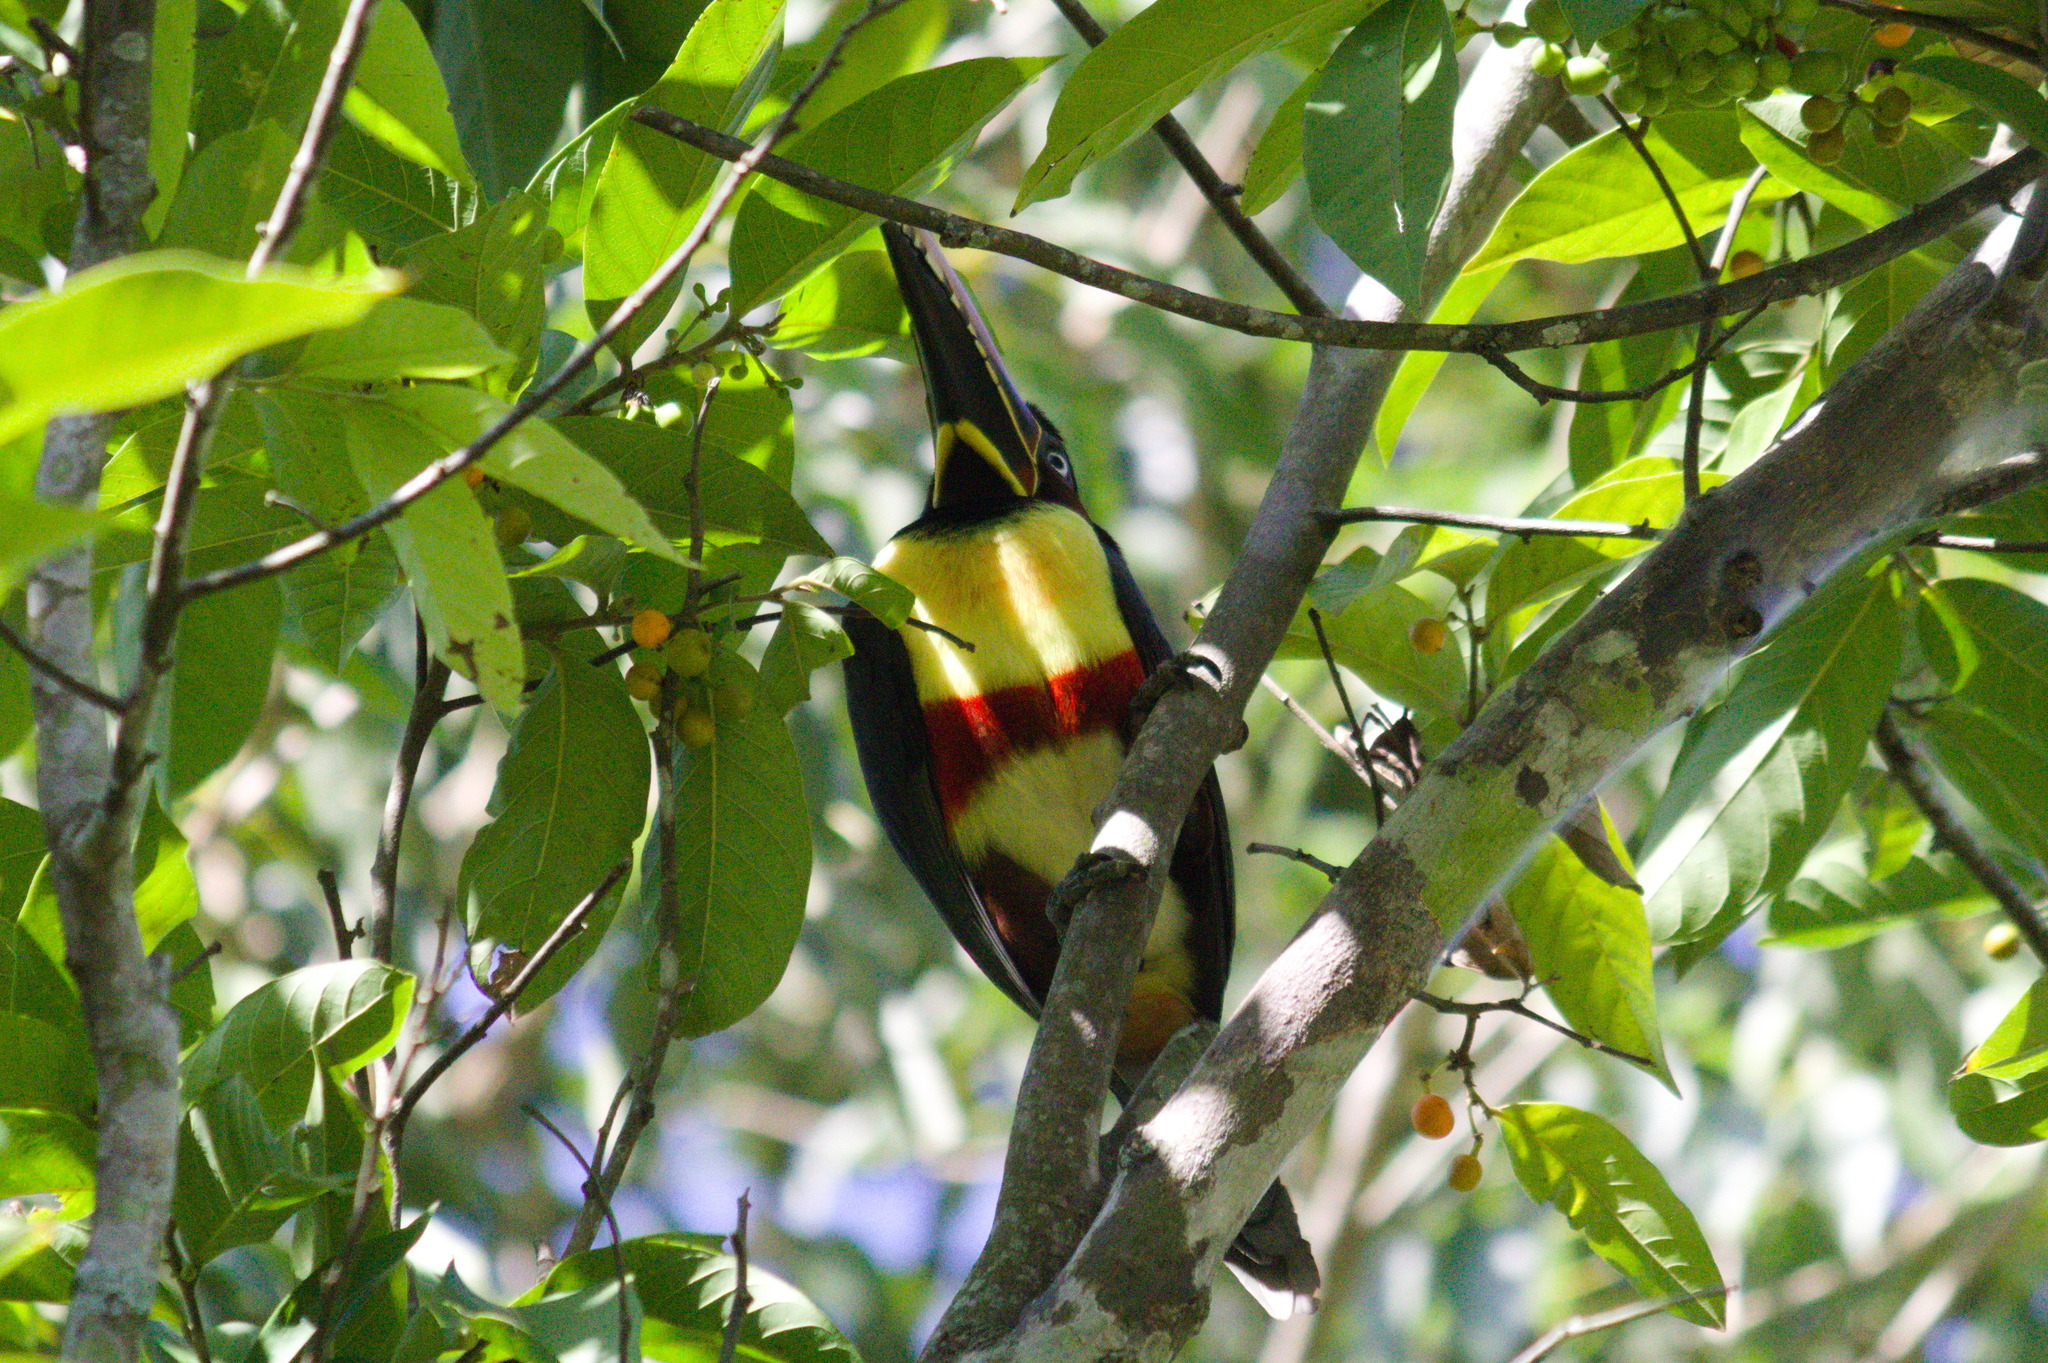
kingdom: Animalia
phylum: Chordata
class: Aves
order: Piciformes
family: Ramphastidae
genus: Pteroglossus
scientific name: Pteroglossus castanotis
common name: Chestnut-eared aracari
